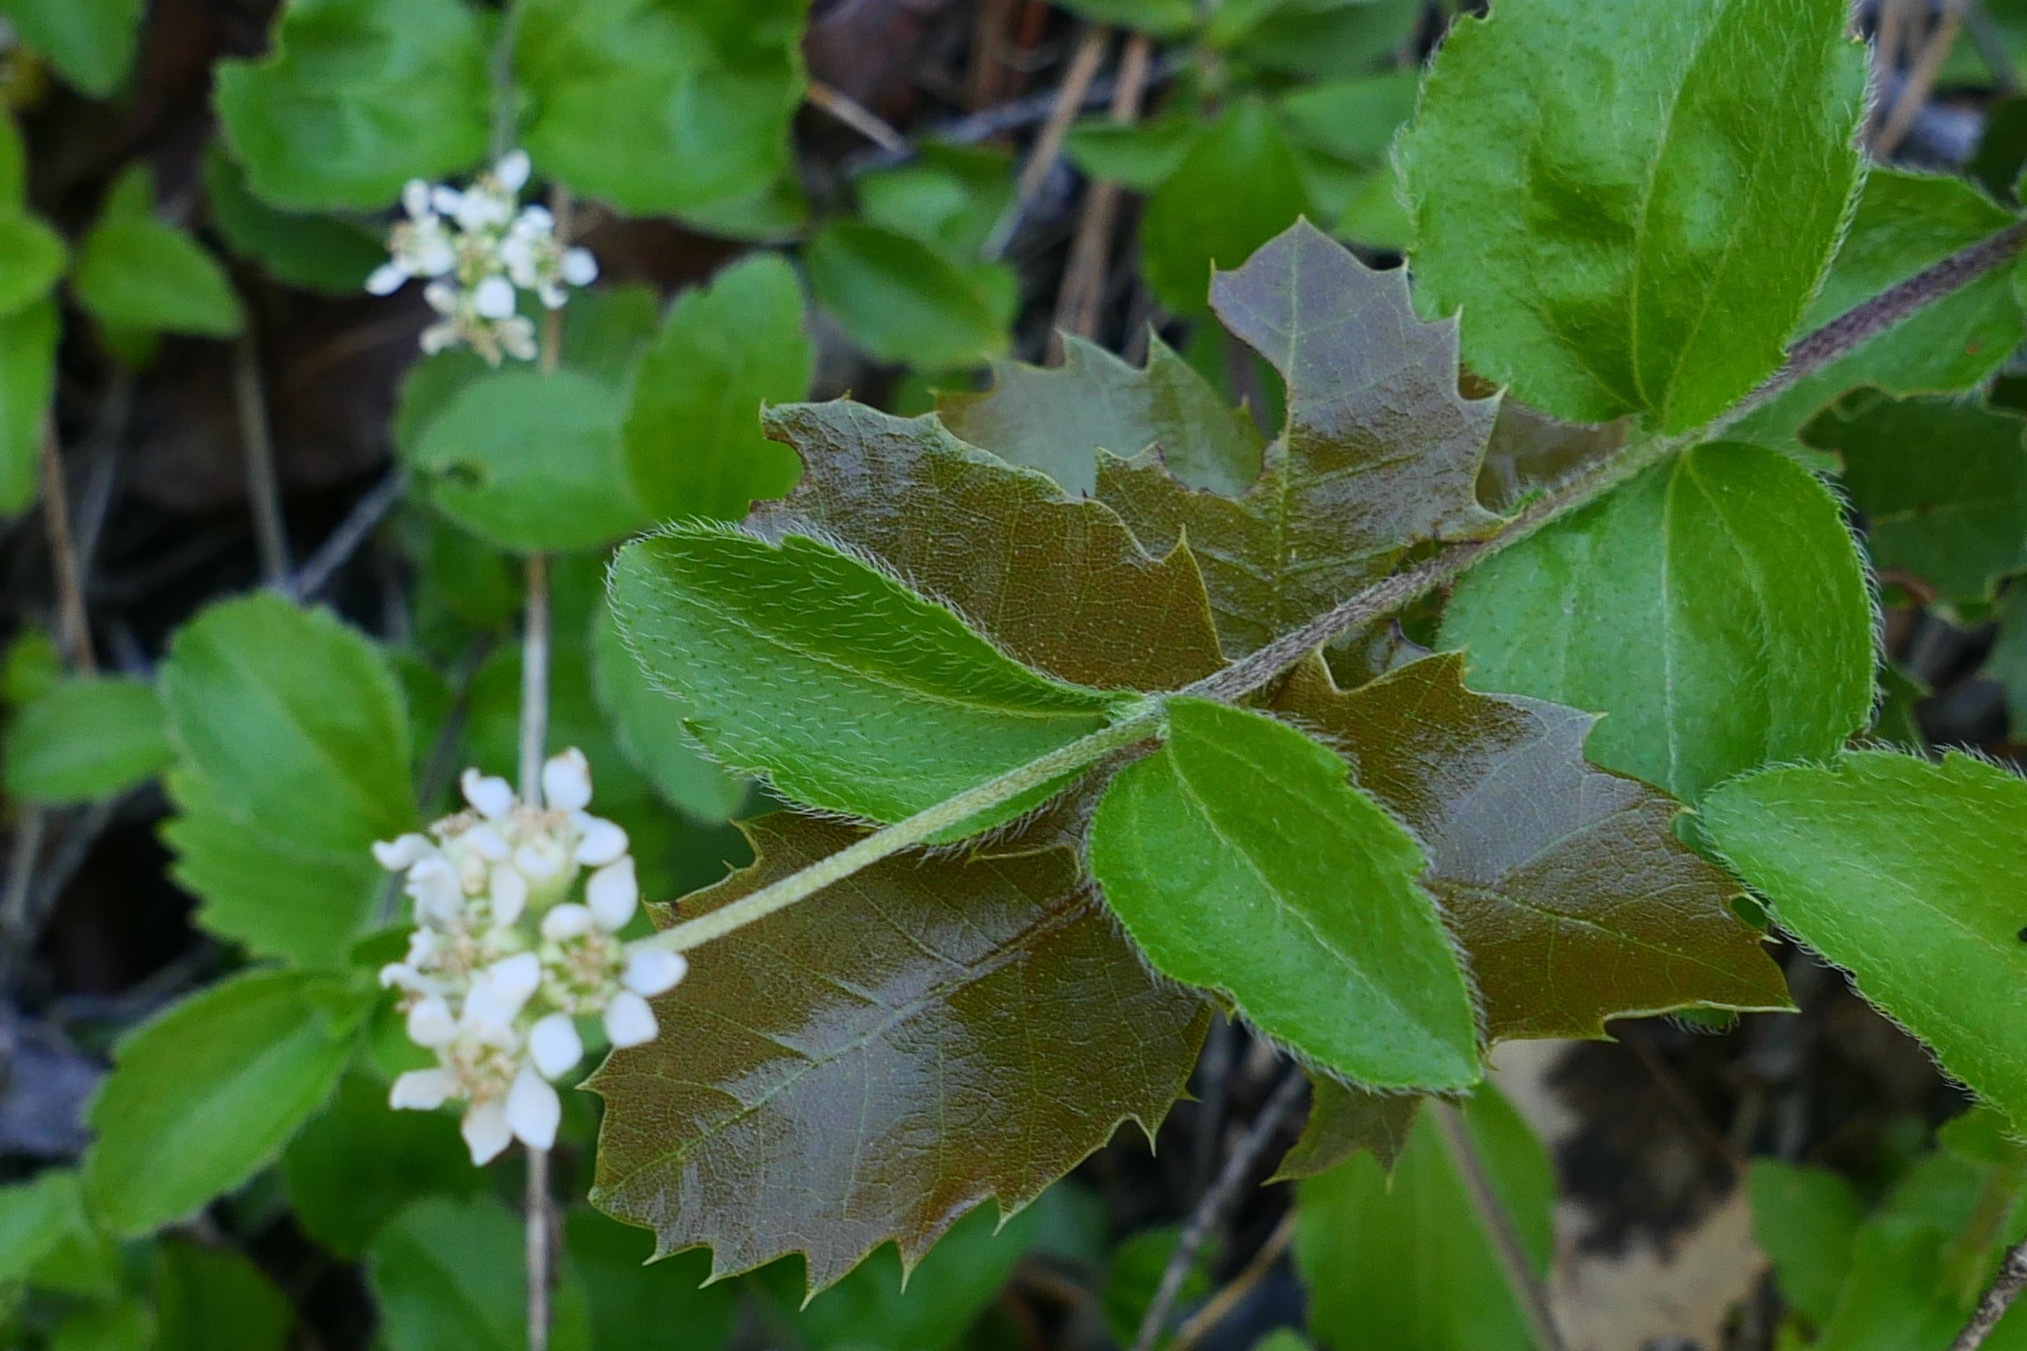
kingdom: Plantae
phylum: Tracheophyta
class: Magnoliopsida
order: Cornales
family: Hydrangeaceae
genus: Whipplea
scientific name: Whipplea modesta
